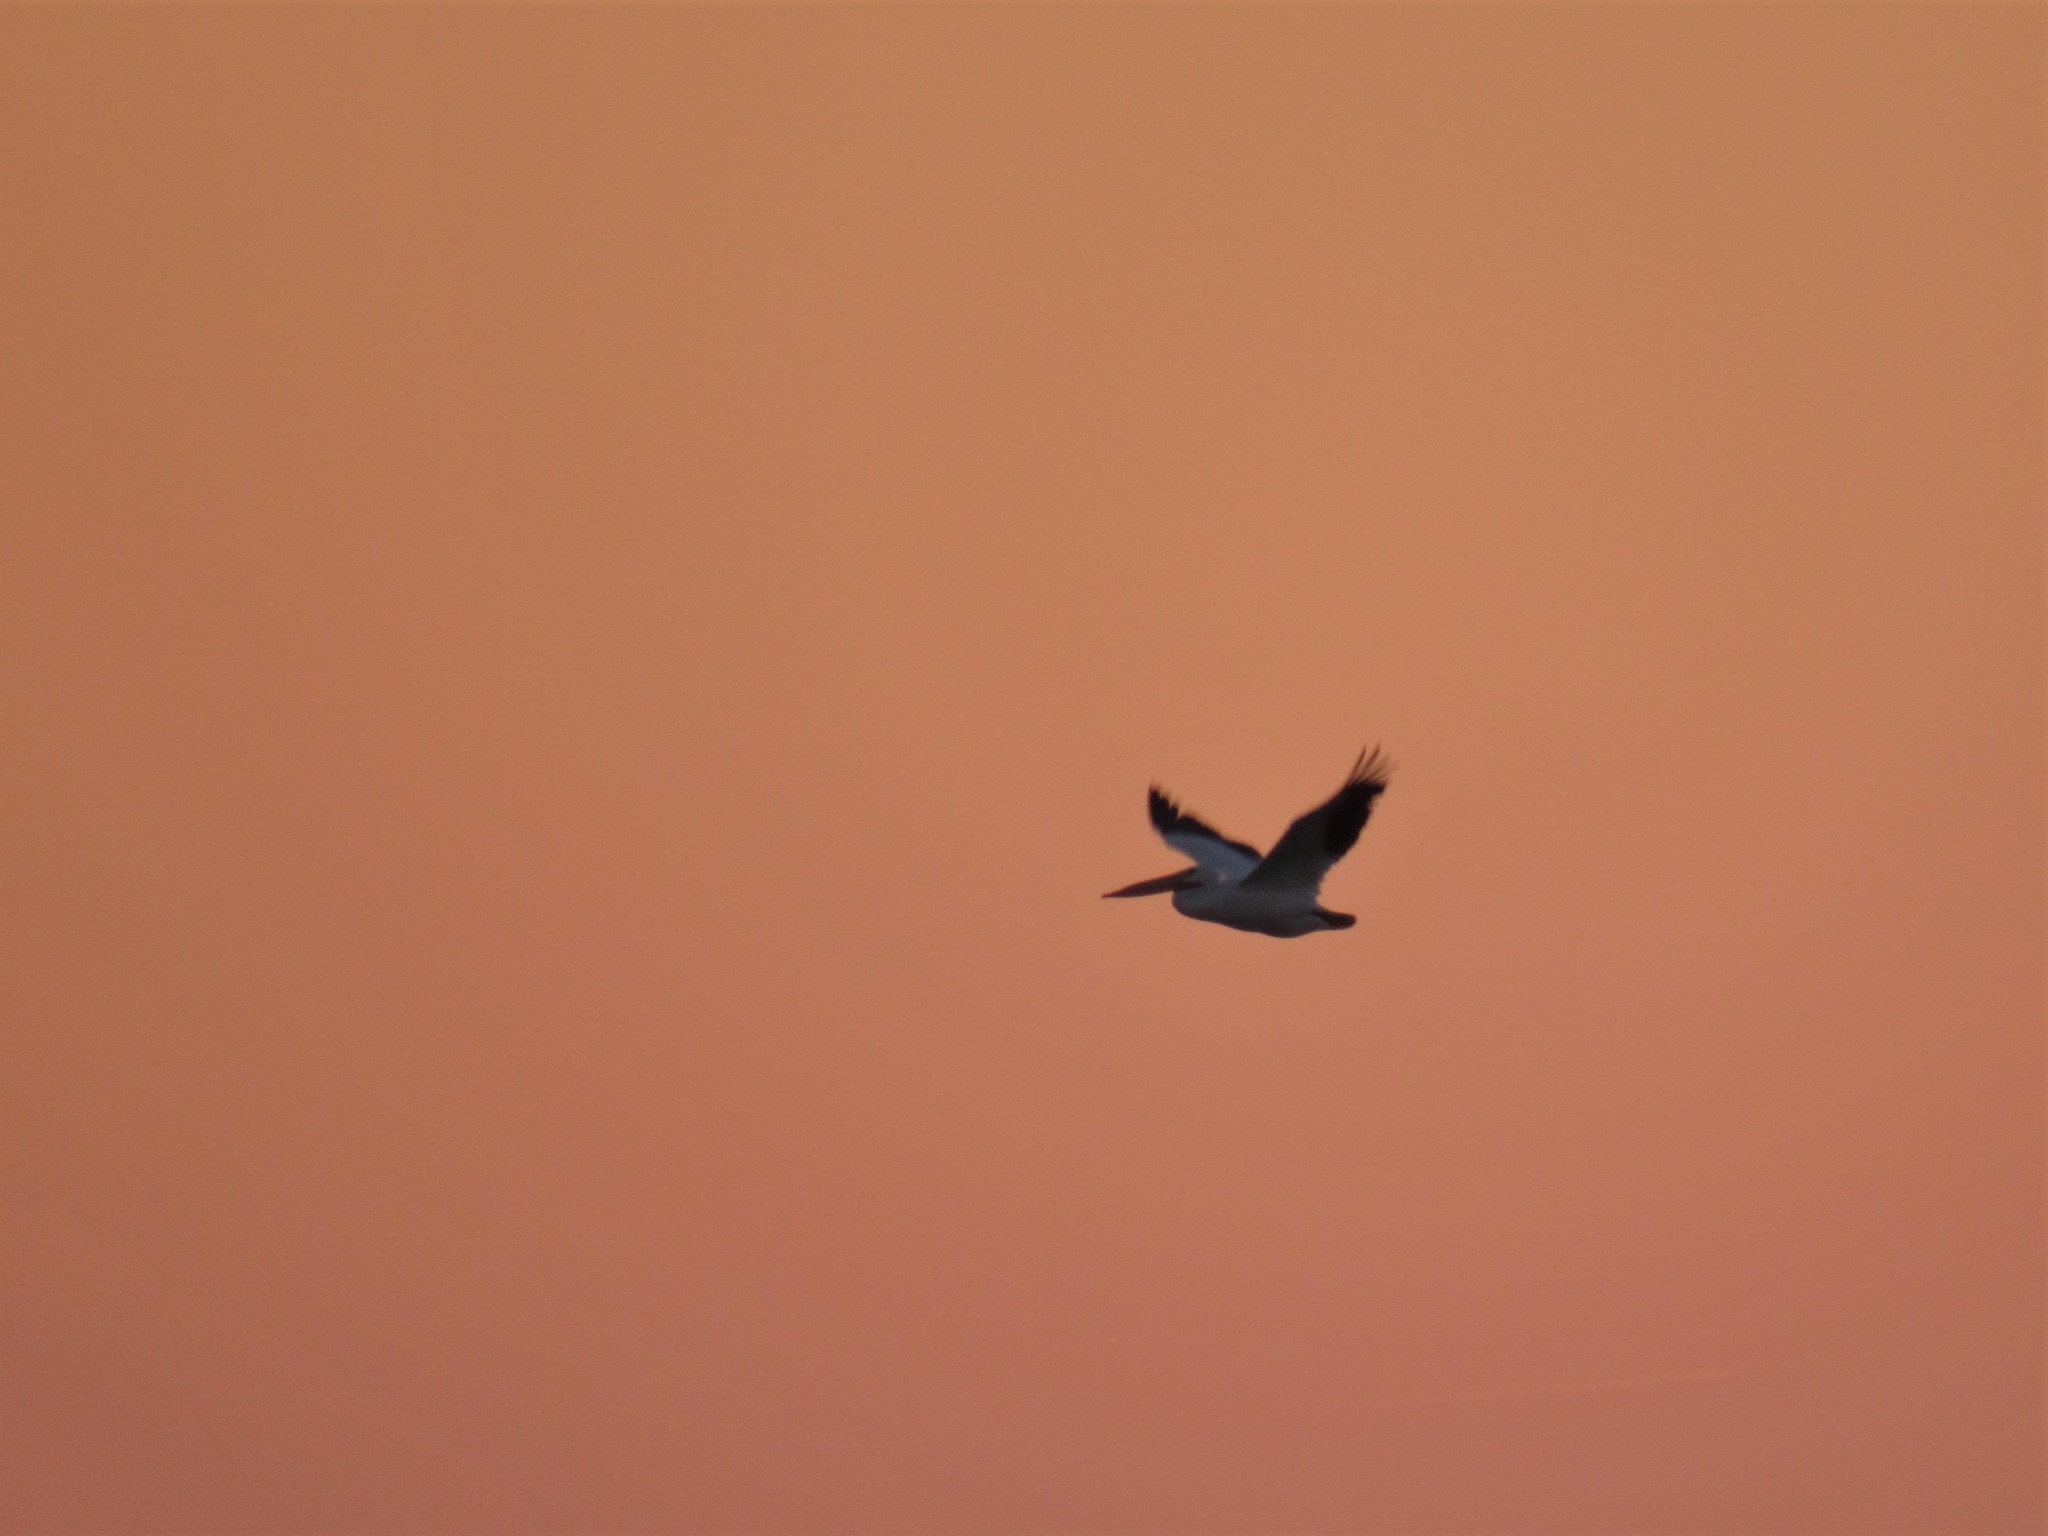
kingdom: Animalia
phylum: Chordata
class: Aves
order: Pelecaniformes
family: Pelecanidae
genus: Pelecanus
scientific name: Pelecanus erythrorhynchos
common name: American white pelican
